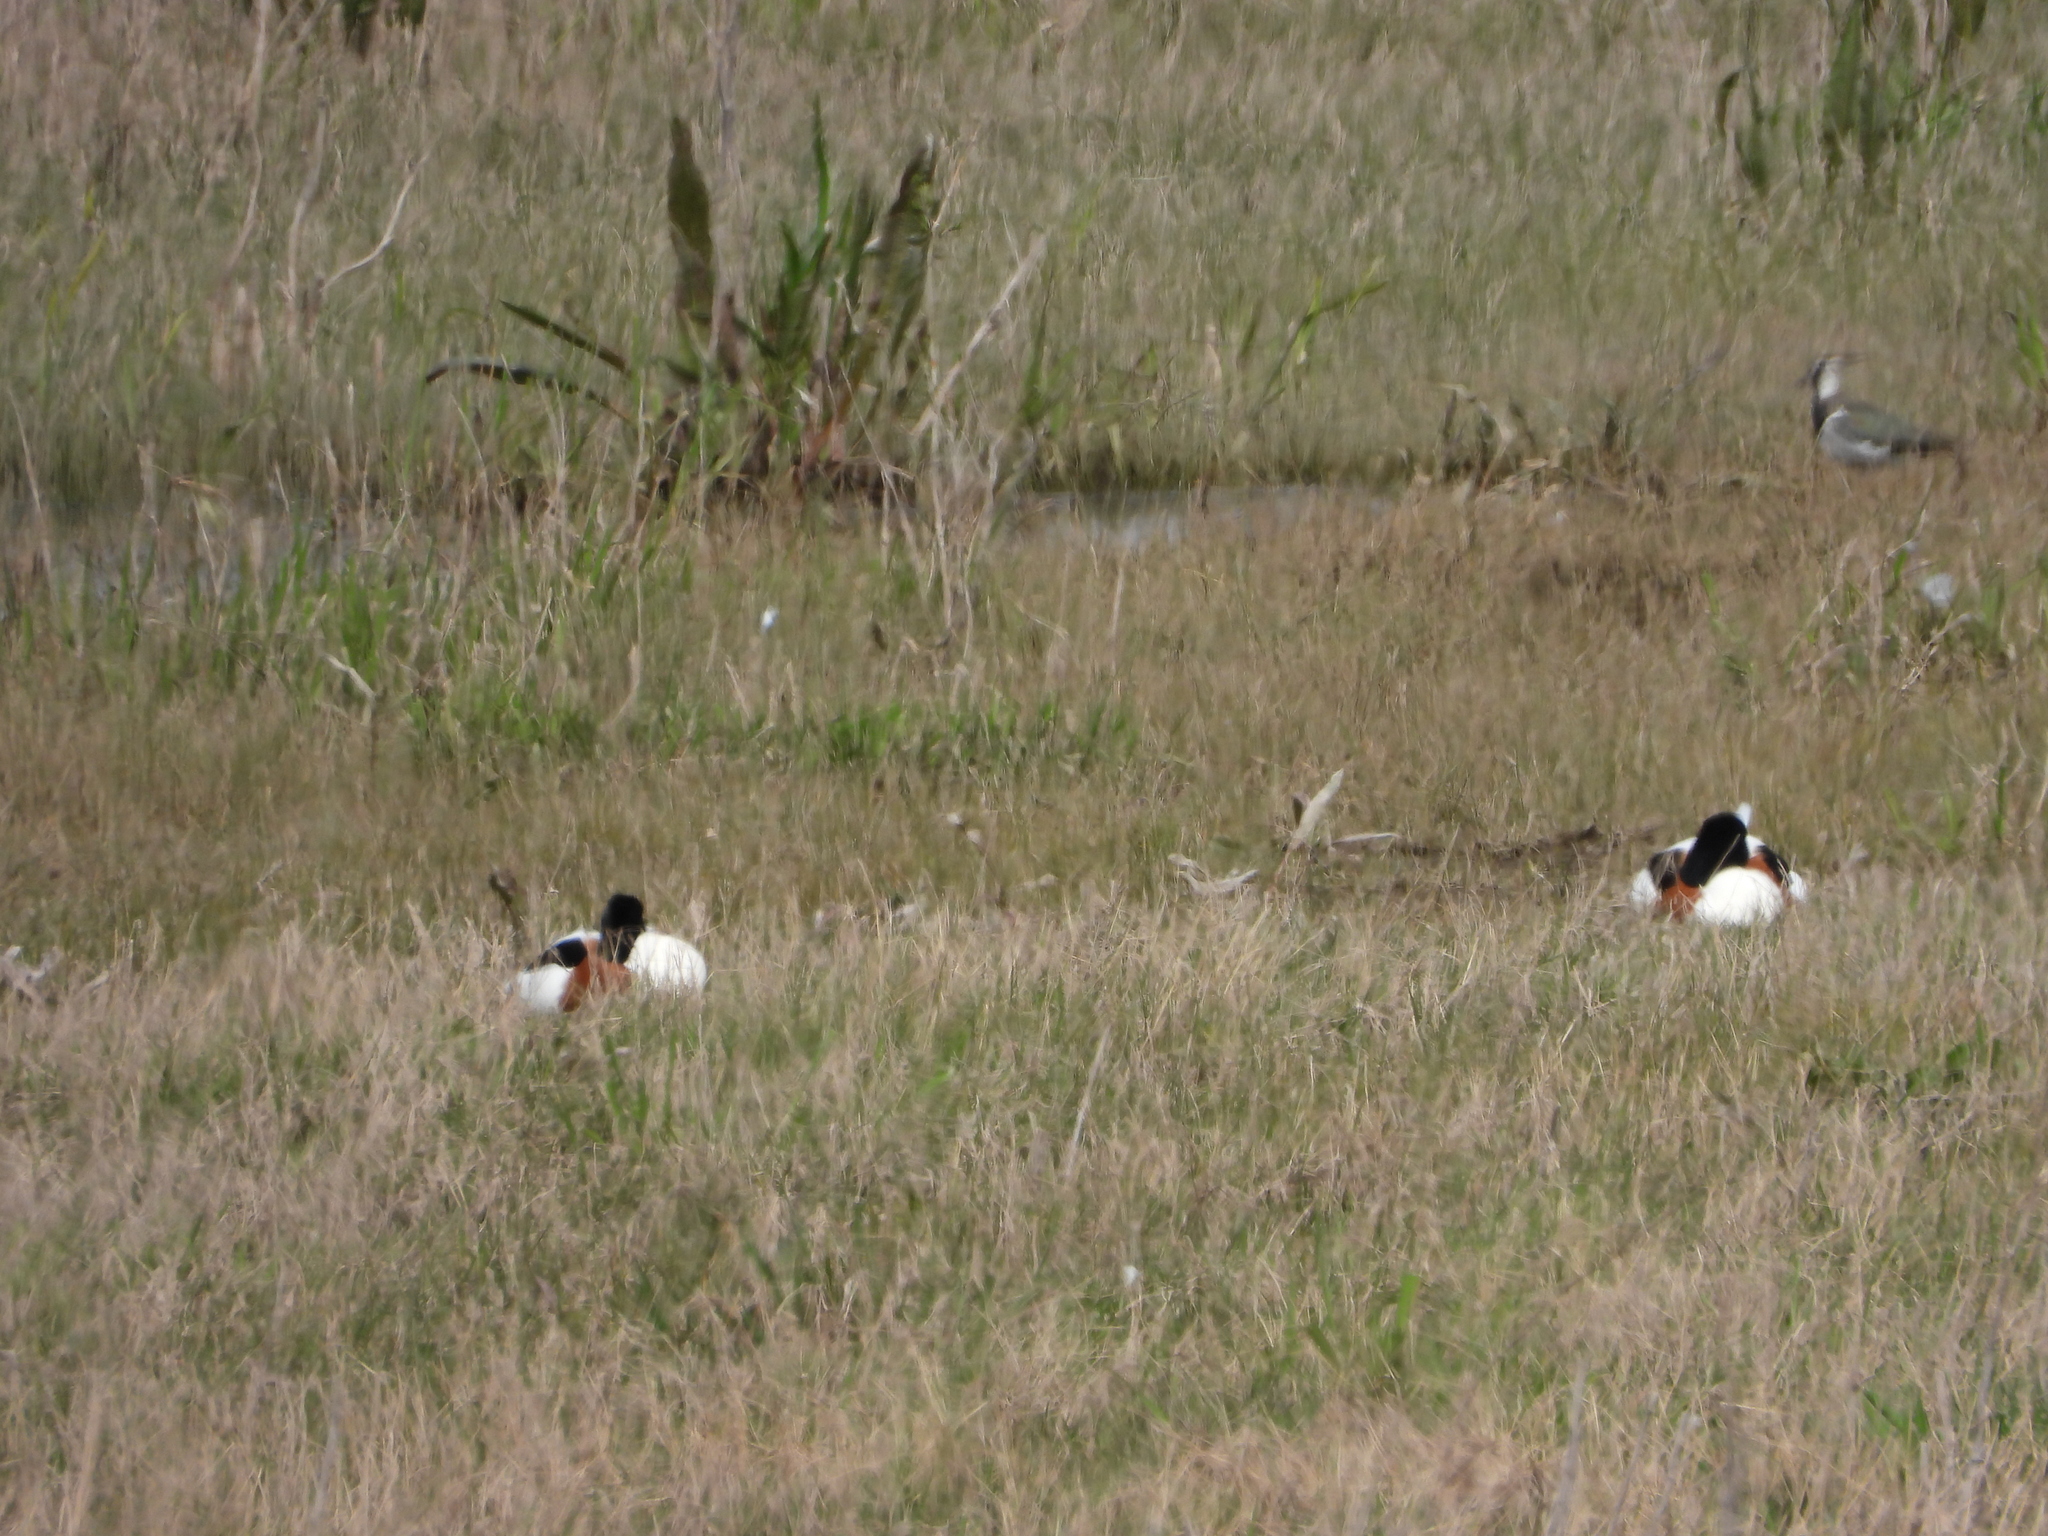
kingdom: Animalia
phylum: Chordata
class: Aves
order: Anseriformes
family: Anatidae
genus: Tadorna
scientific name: Tadorna tadorna
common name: Common shelduck
